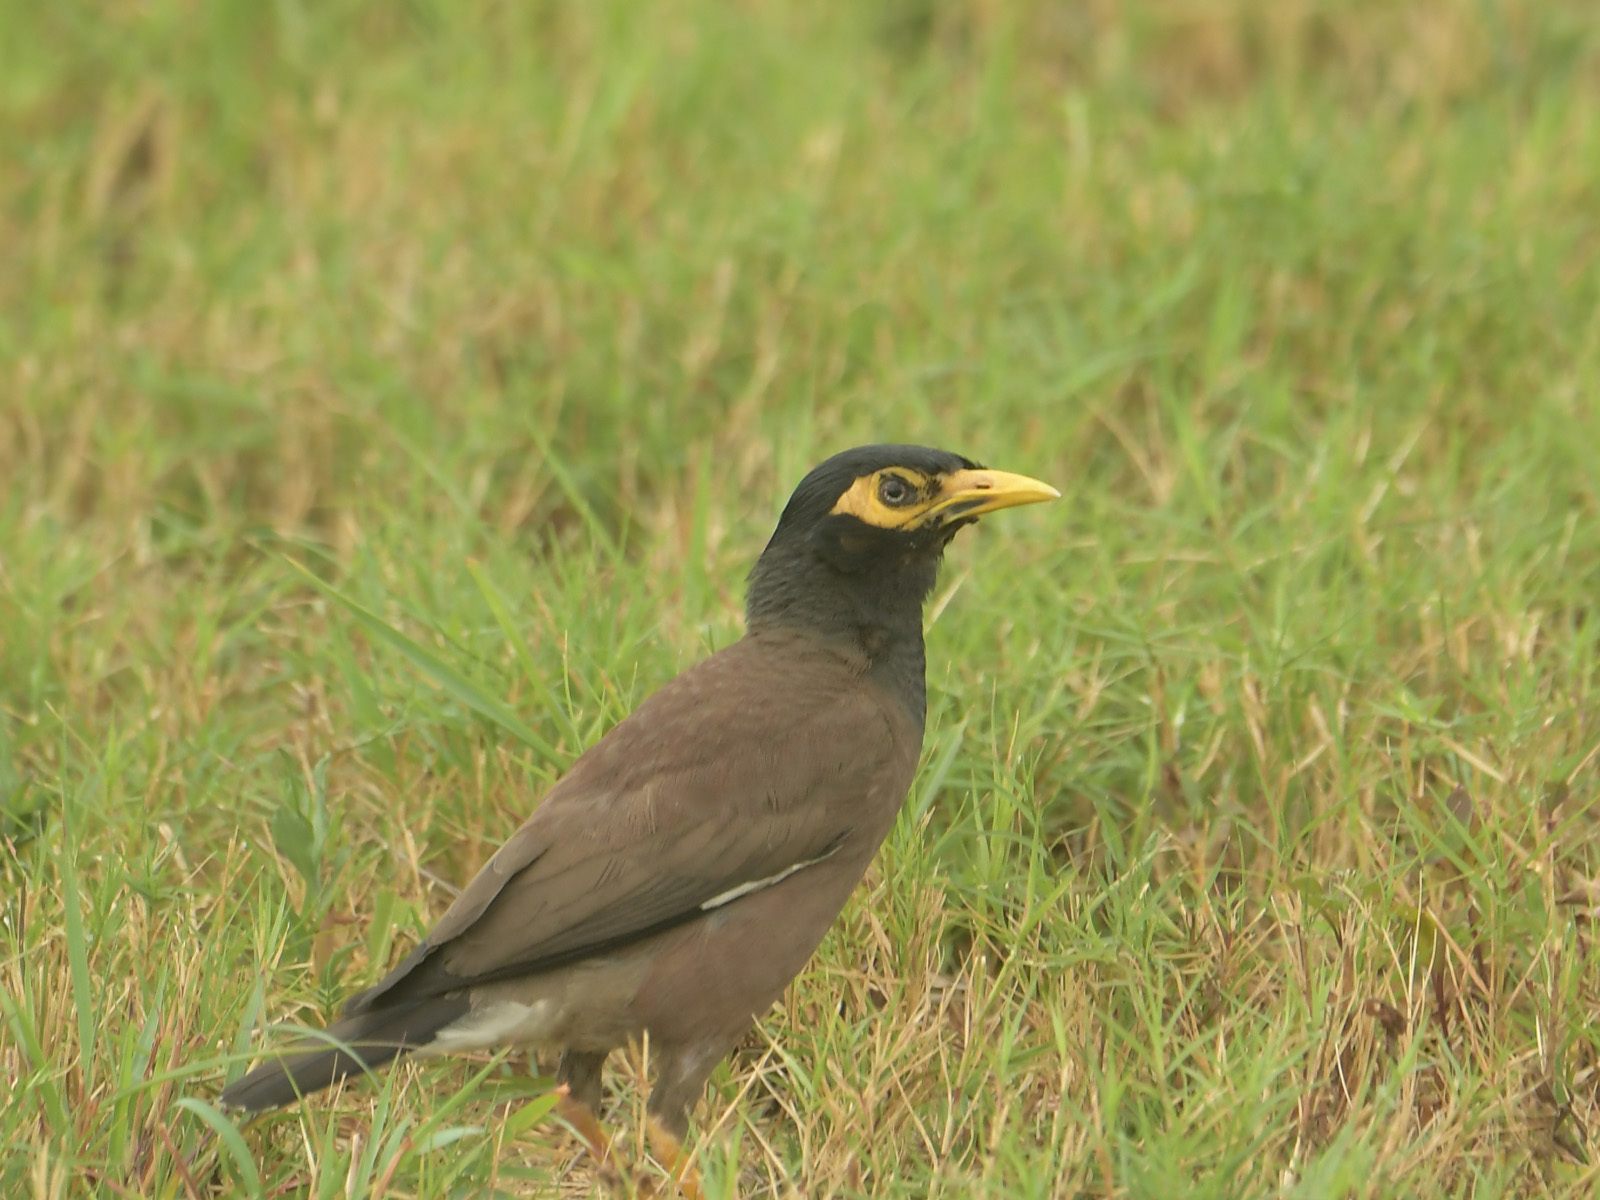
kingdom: Animalia
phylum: Chordata
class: Aves
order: Passeriformes
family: Sturnidae
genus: Acridotheres
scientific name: Acridotheres tristis
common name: Common myna
